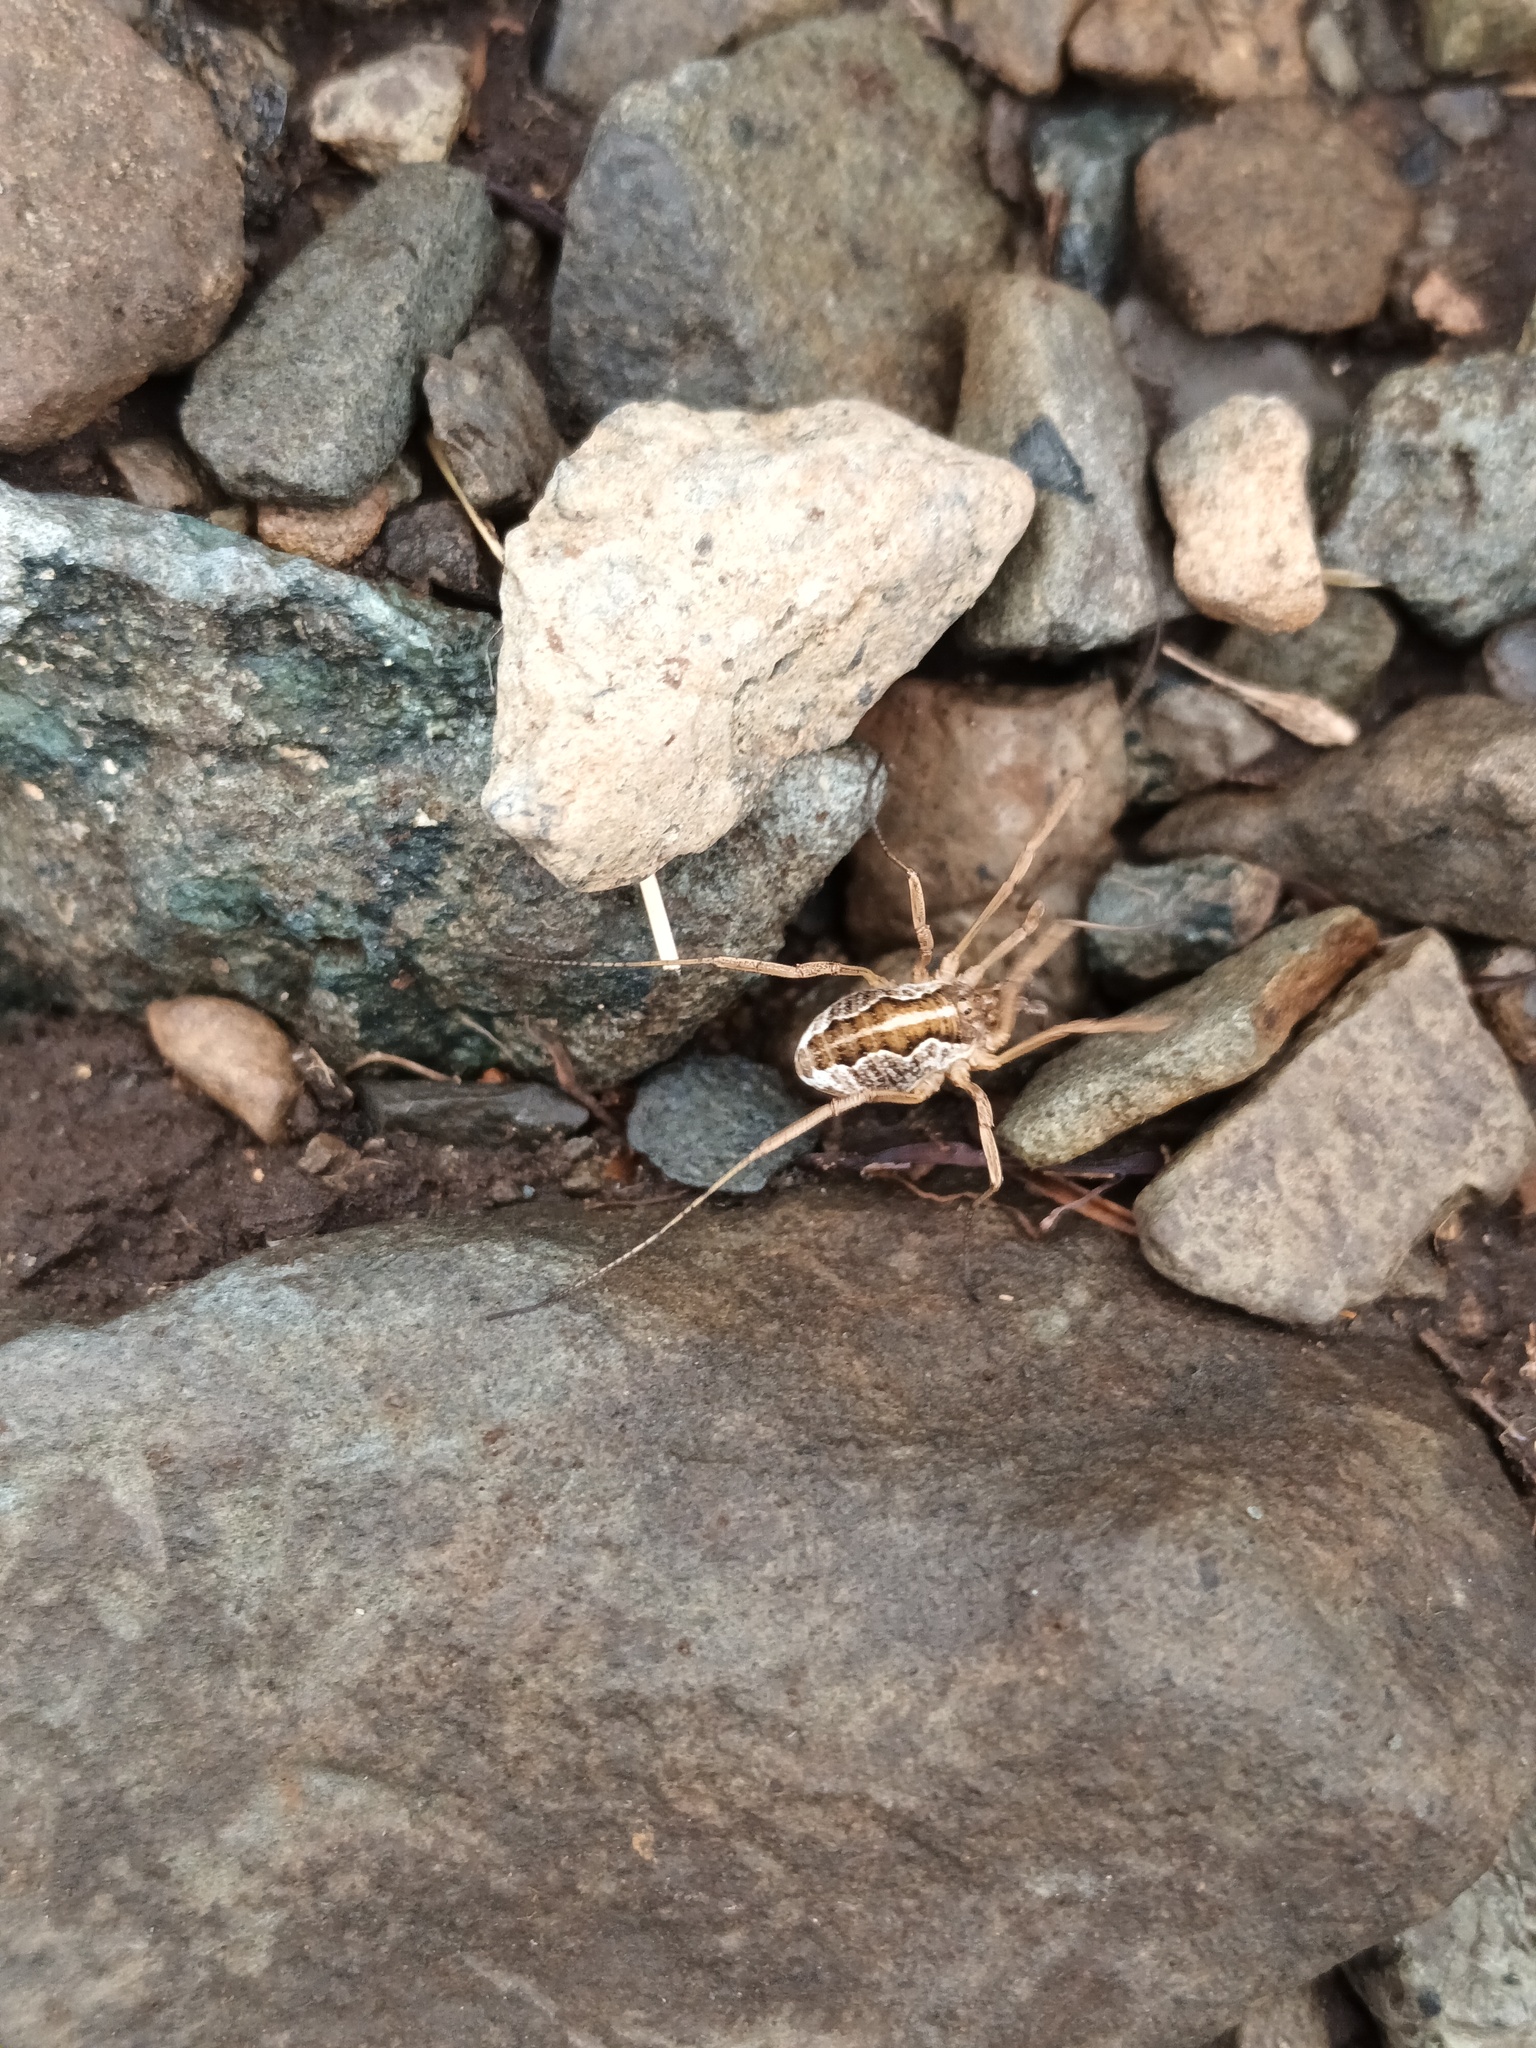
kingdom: Animalia
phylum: Arthropoda
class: Arachnida
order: Opiliones
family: Phalangiidae
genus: Mitopus
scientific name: Mitopus morio
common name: Saddleback harvestman
